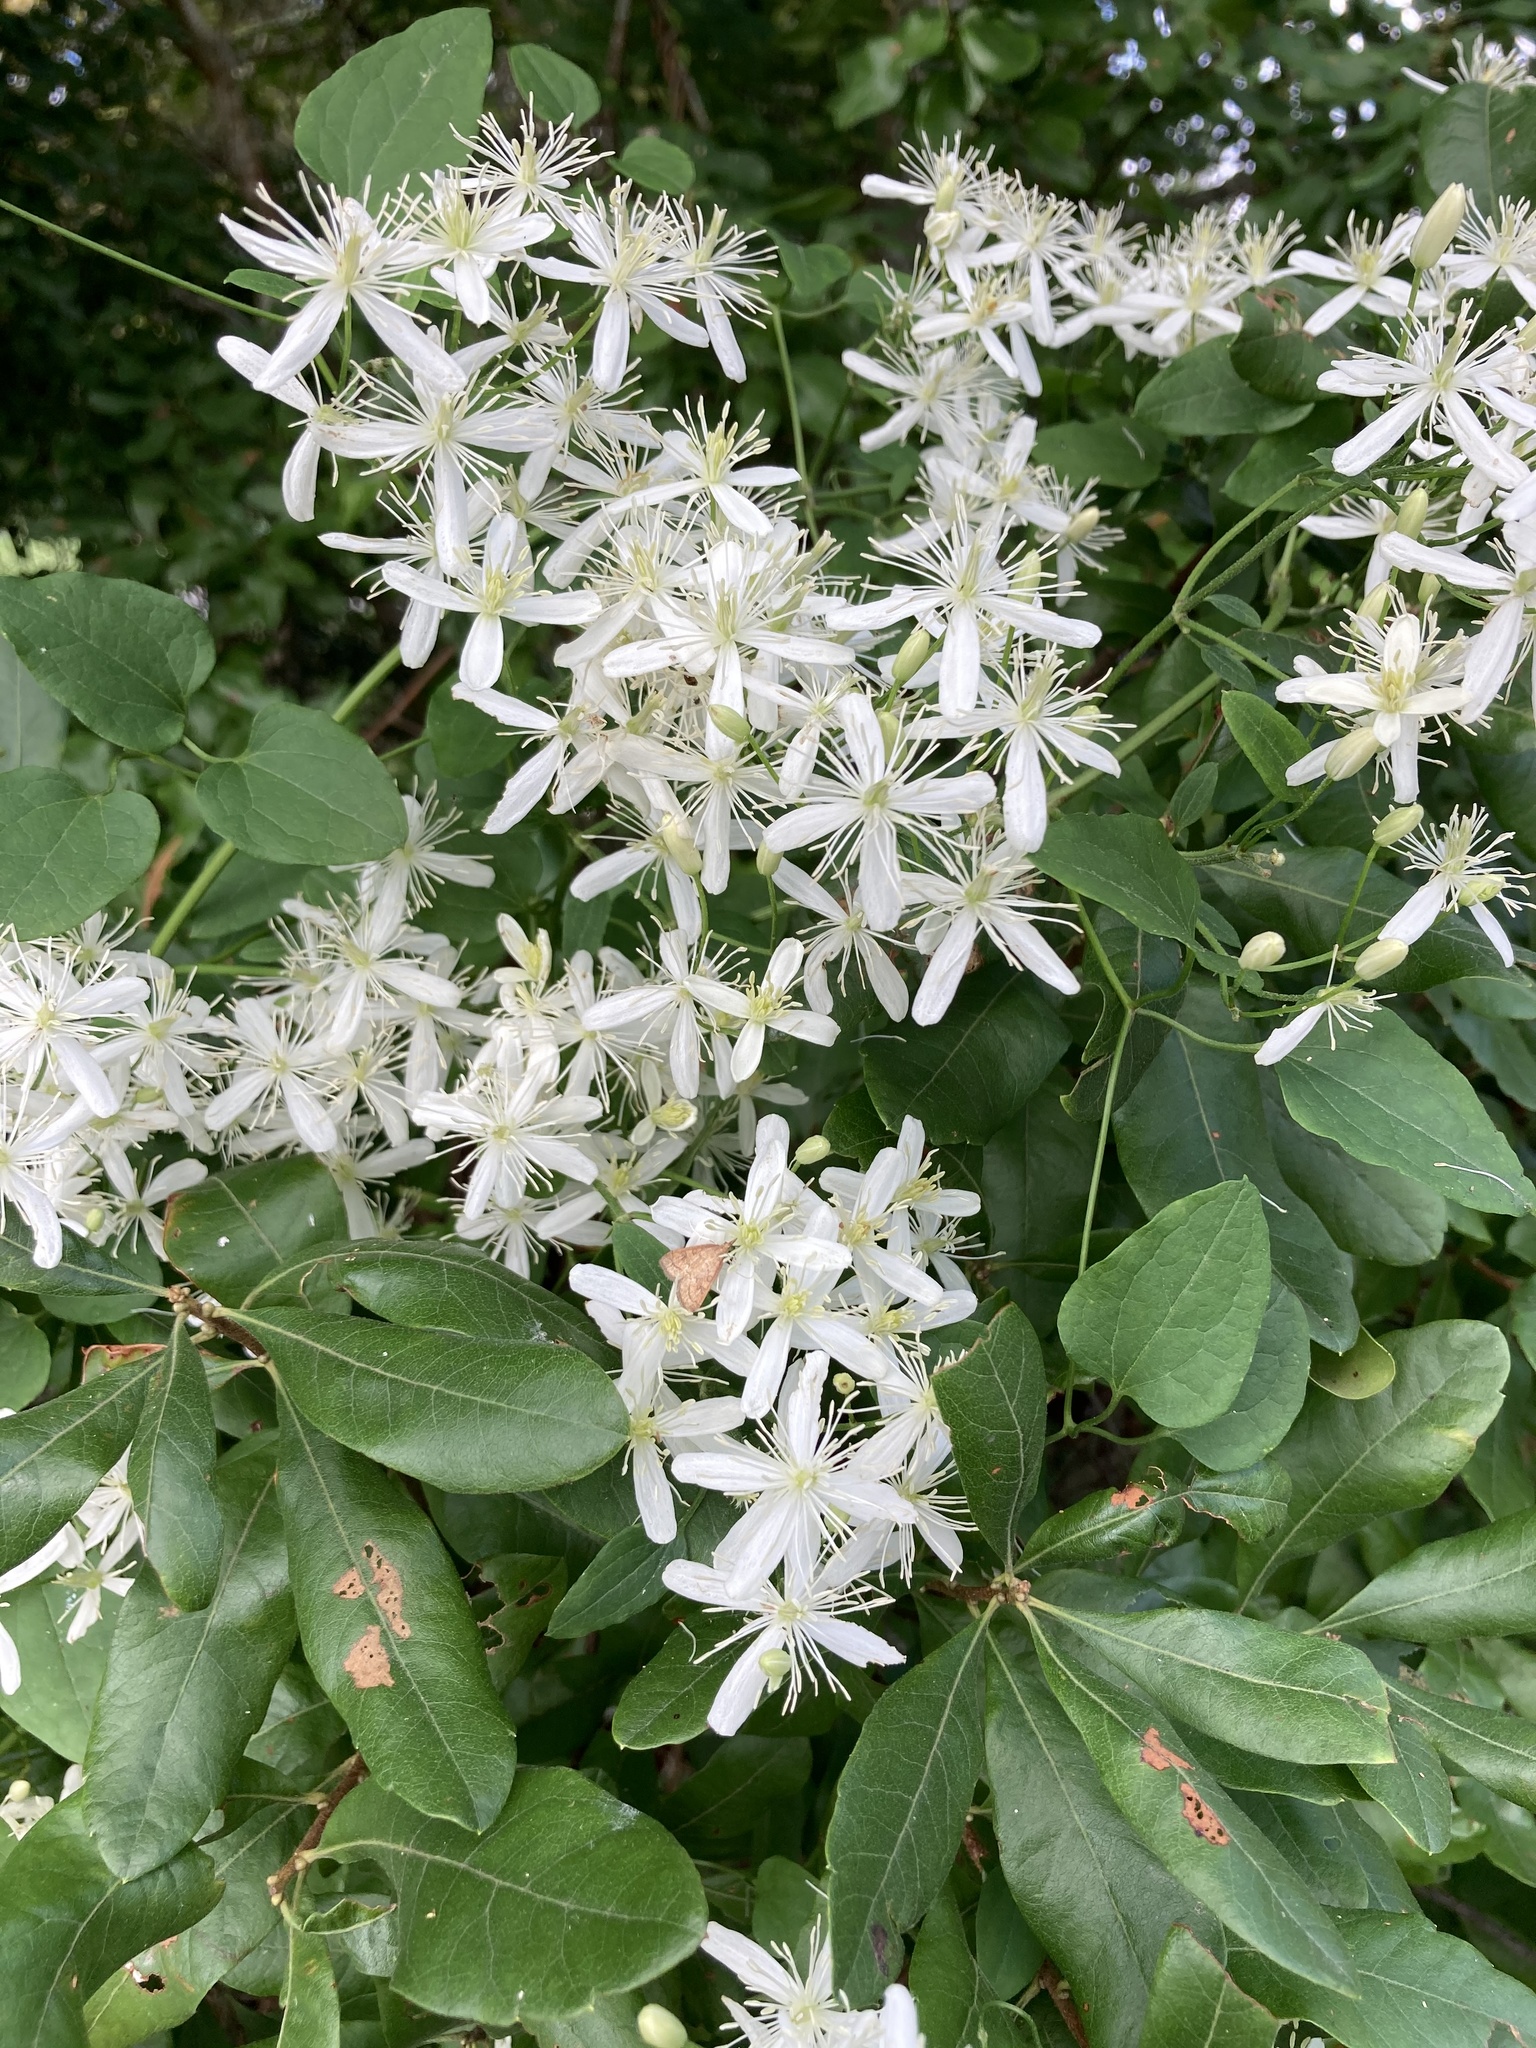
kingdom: Plantae
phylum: Tracheophyta
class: Magnoliopsida
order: Ranunculales
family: Ranunculaceae
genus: Clematis
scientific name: Clematis terniflora
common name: Sweet autumn clematis
